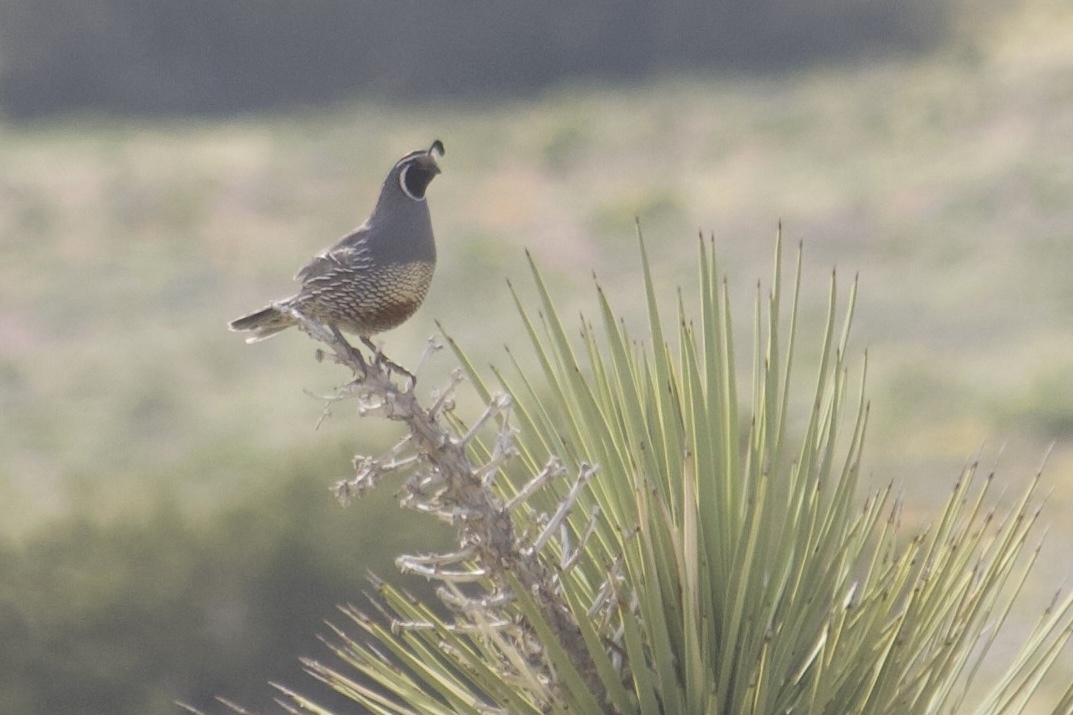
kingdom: Animalia
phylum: Chordata
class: Aves
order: Galliformes
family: Odontophoridae
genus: Callipepla
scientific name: Callipepla californica
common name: California quail
